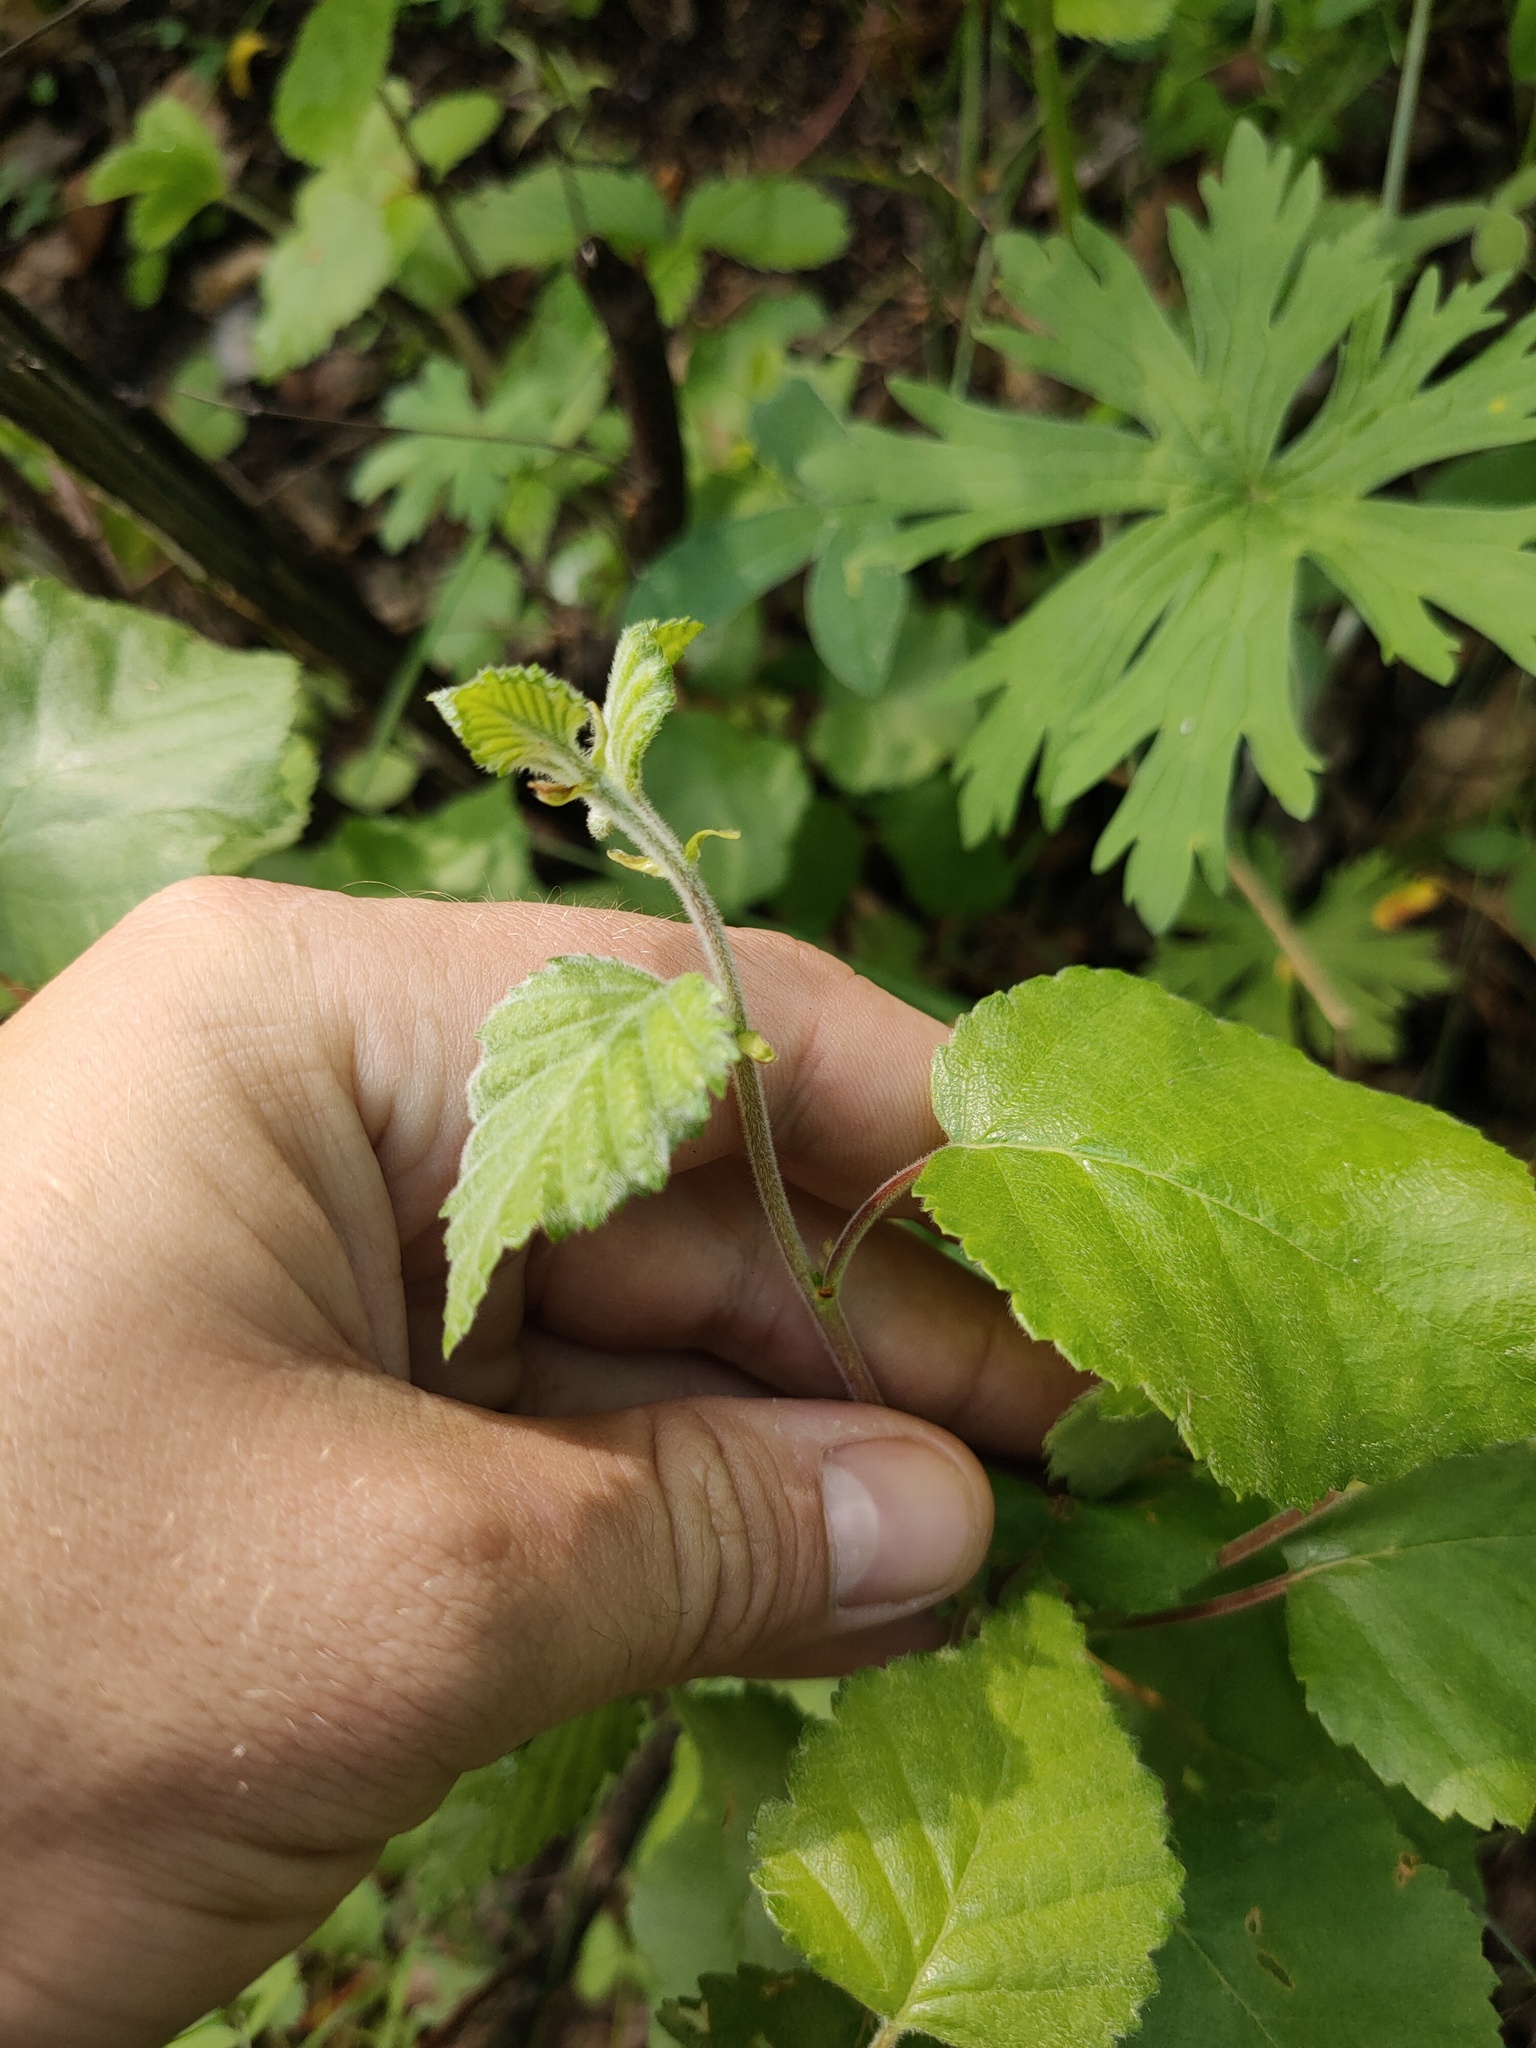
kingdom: Plantae
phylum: Tracheophyta
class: Magnoliopsida
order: Fagales
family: Betulaceae
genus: Betula
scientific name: Betula pubescens
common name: Downy birch
